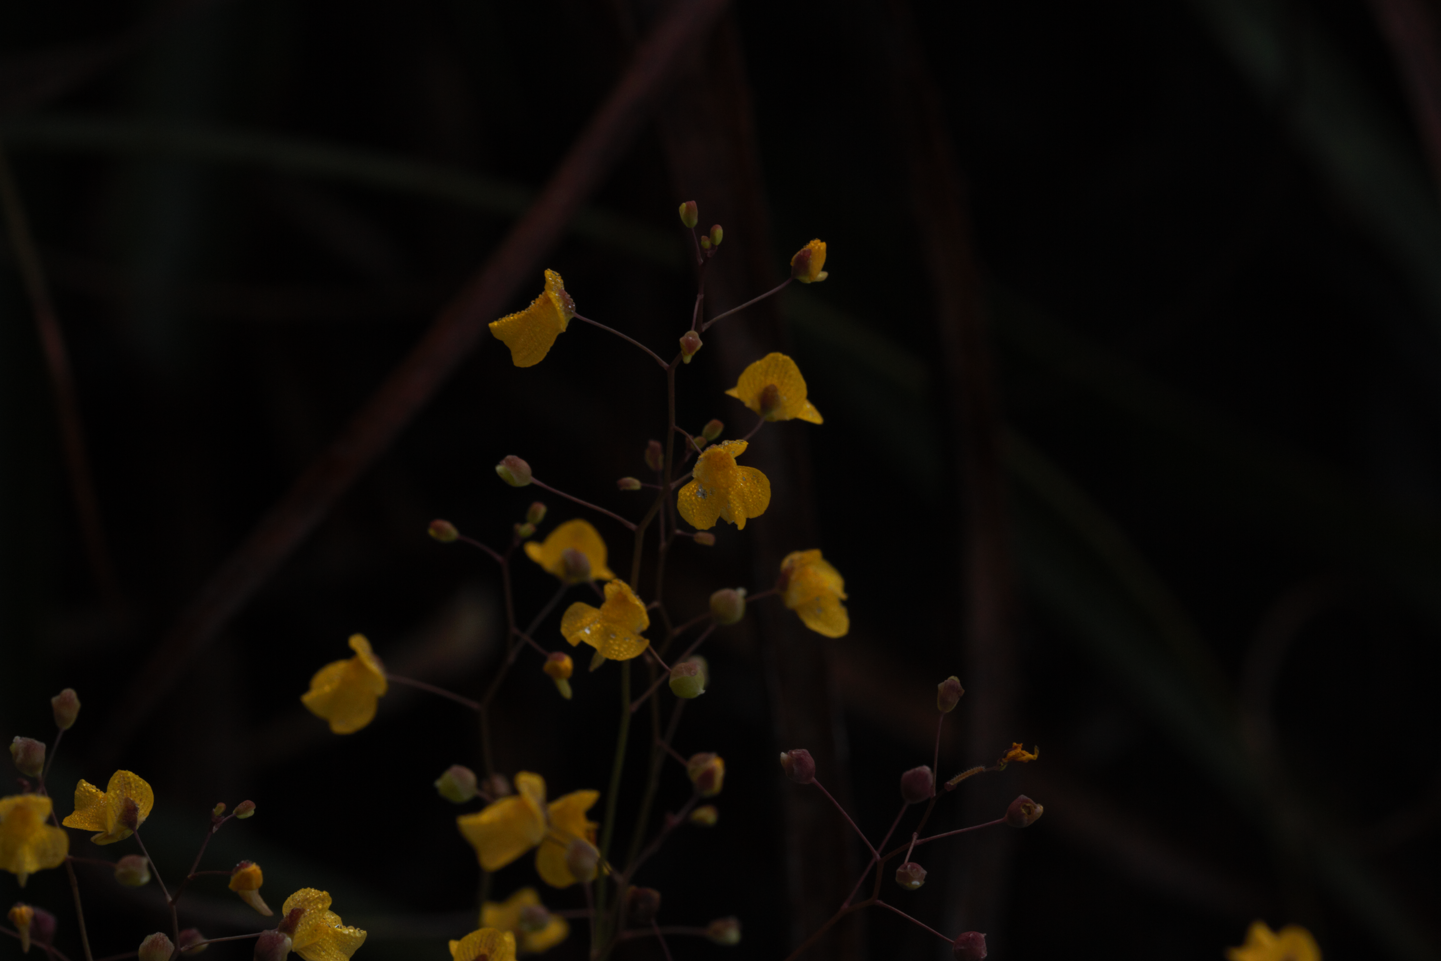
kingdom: Plantae
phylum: Tracheophyta
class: Magnoliopsida
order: Lamiales
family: Lentibulariaceae
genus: Utricularia
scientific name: Utricularia hispida
